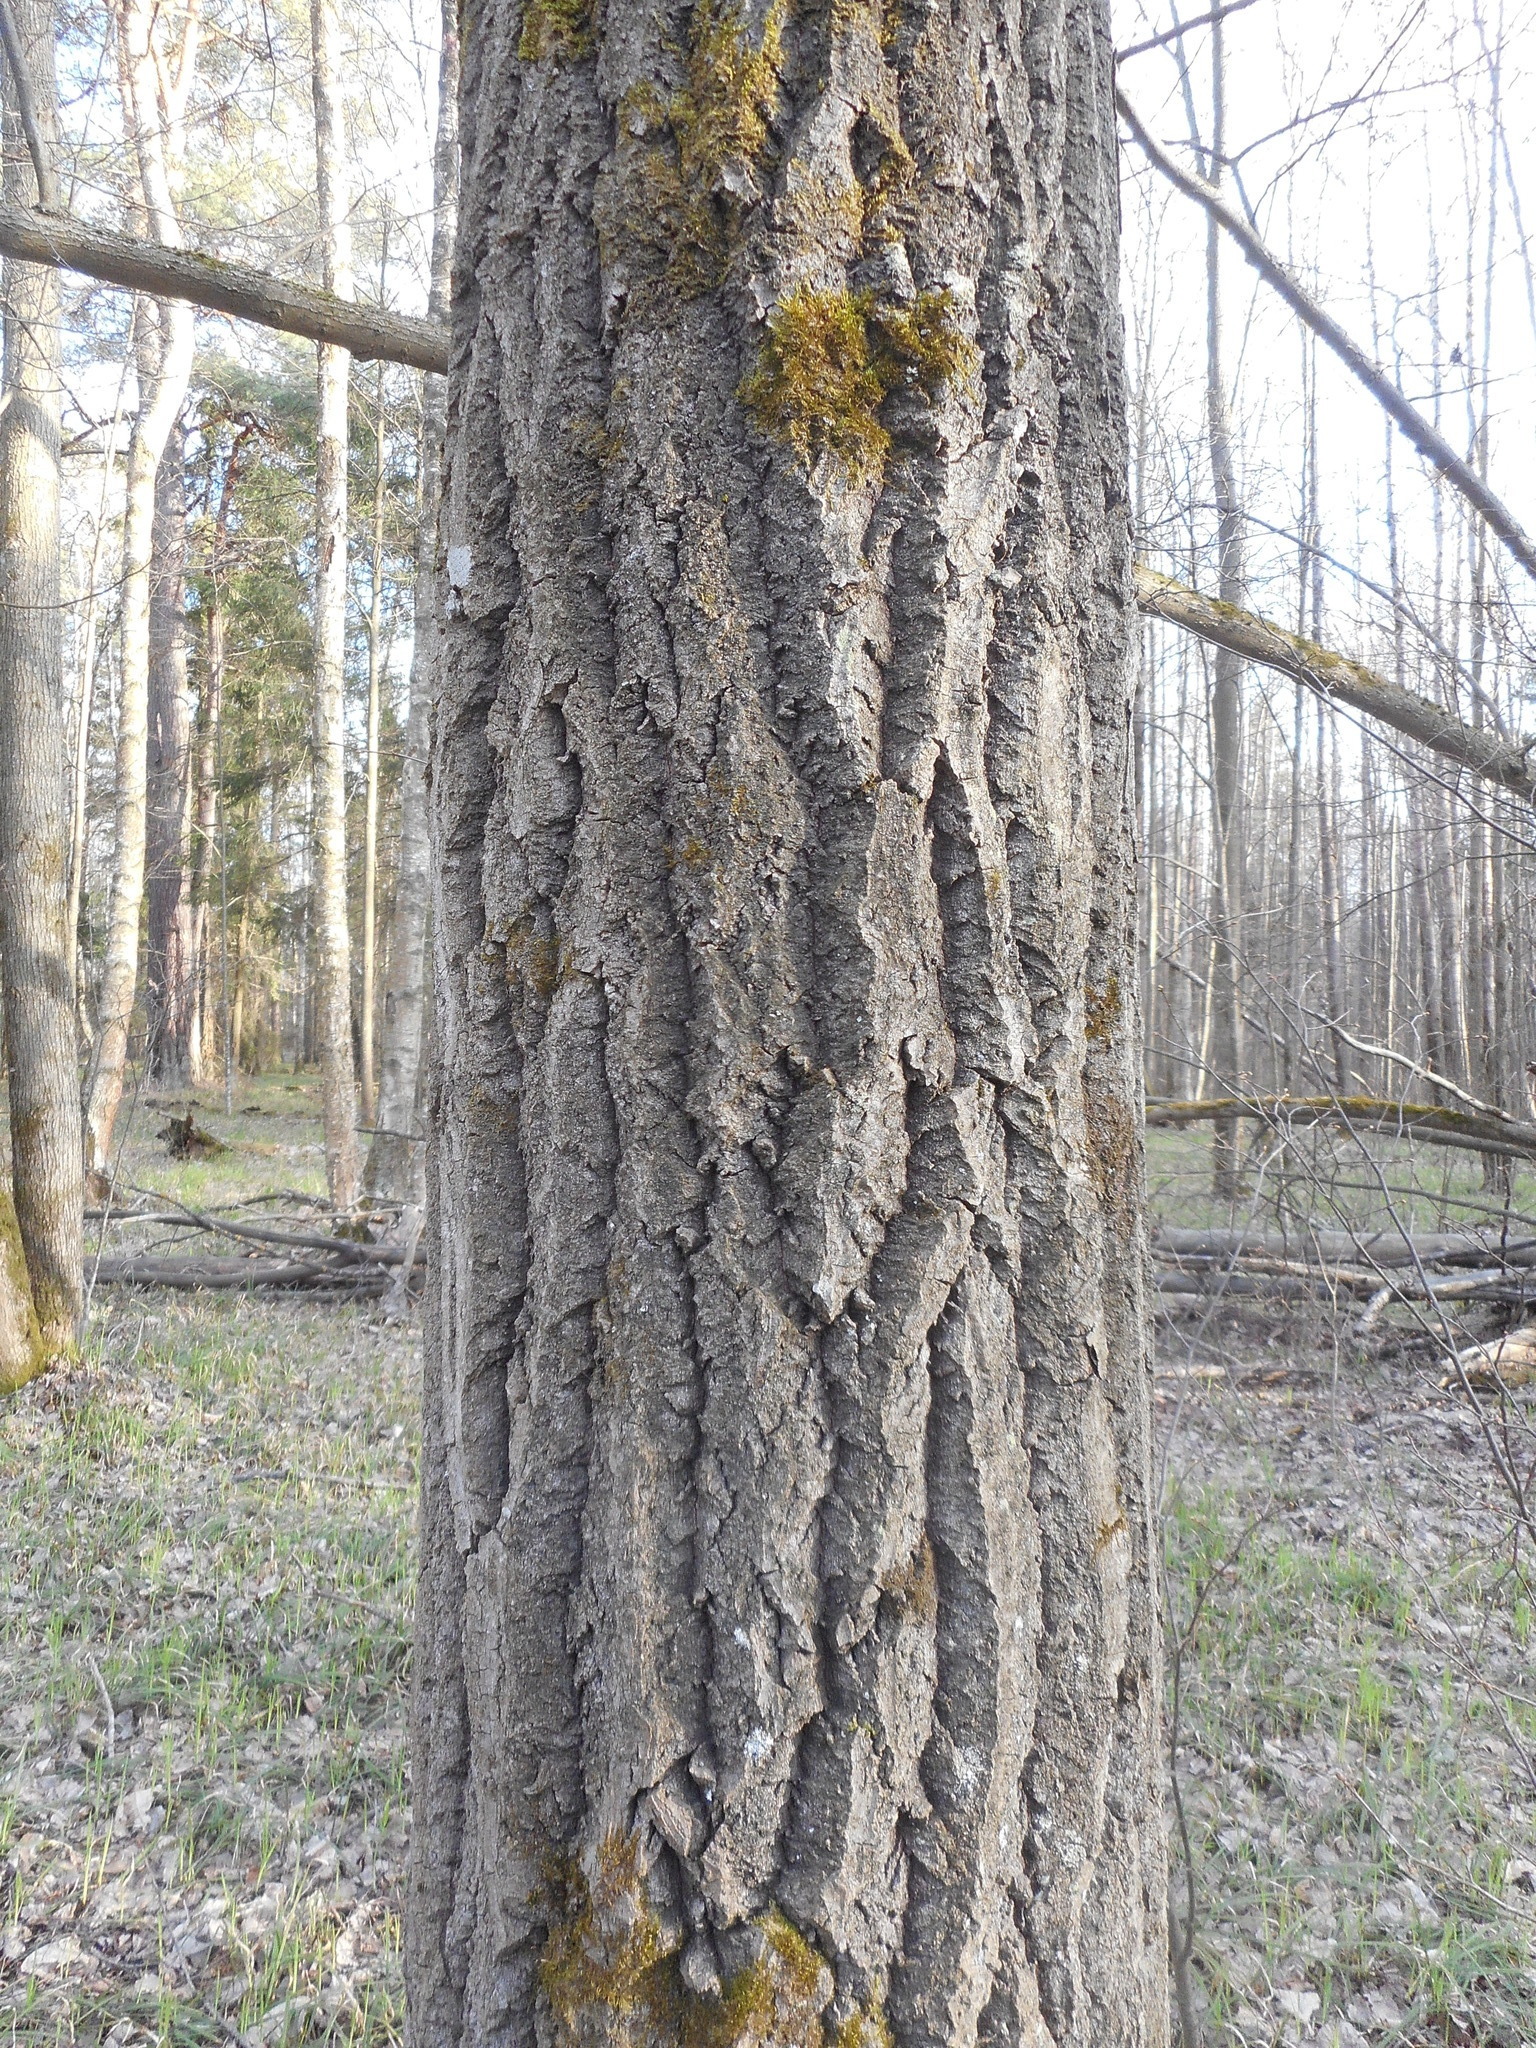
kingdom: Plantae
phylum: Tracheophyta
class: Magnoliopsida
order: Malpighiales
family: Salicaceae
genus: Populus
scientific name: Populus tremula
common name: European aspen
